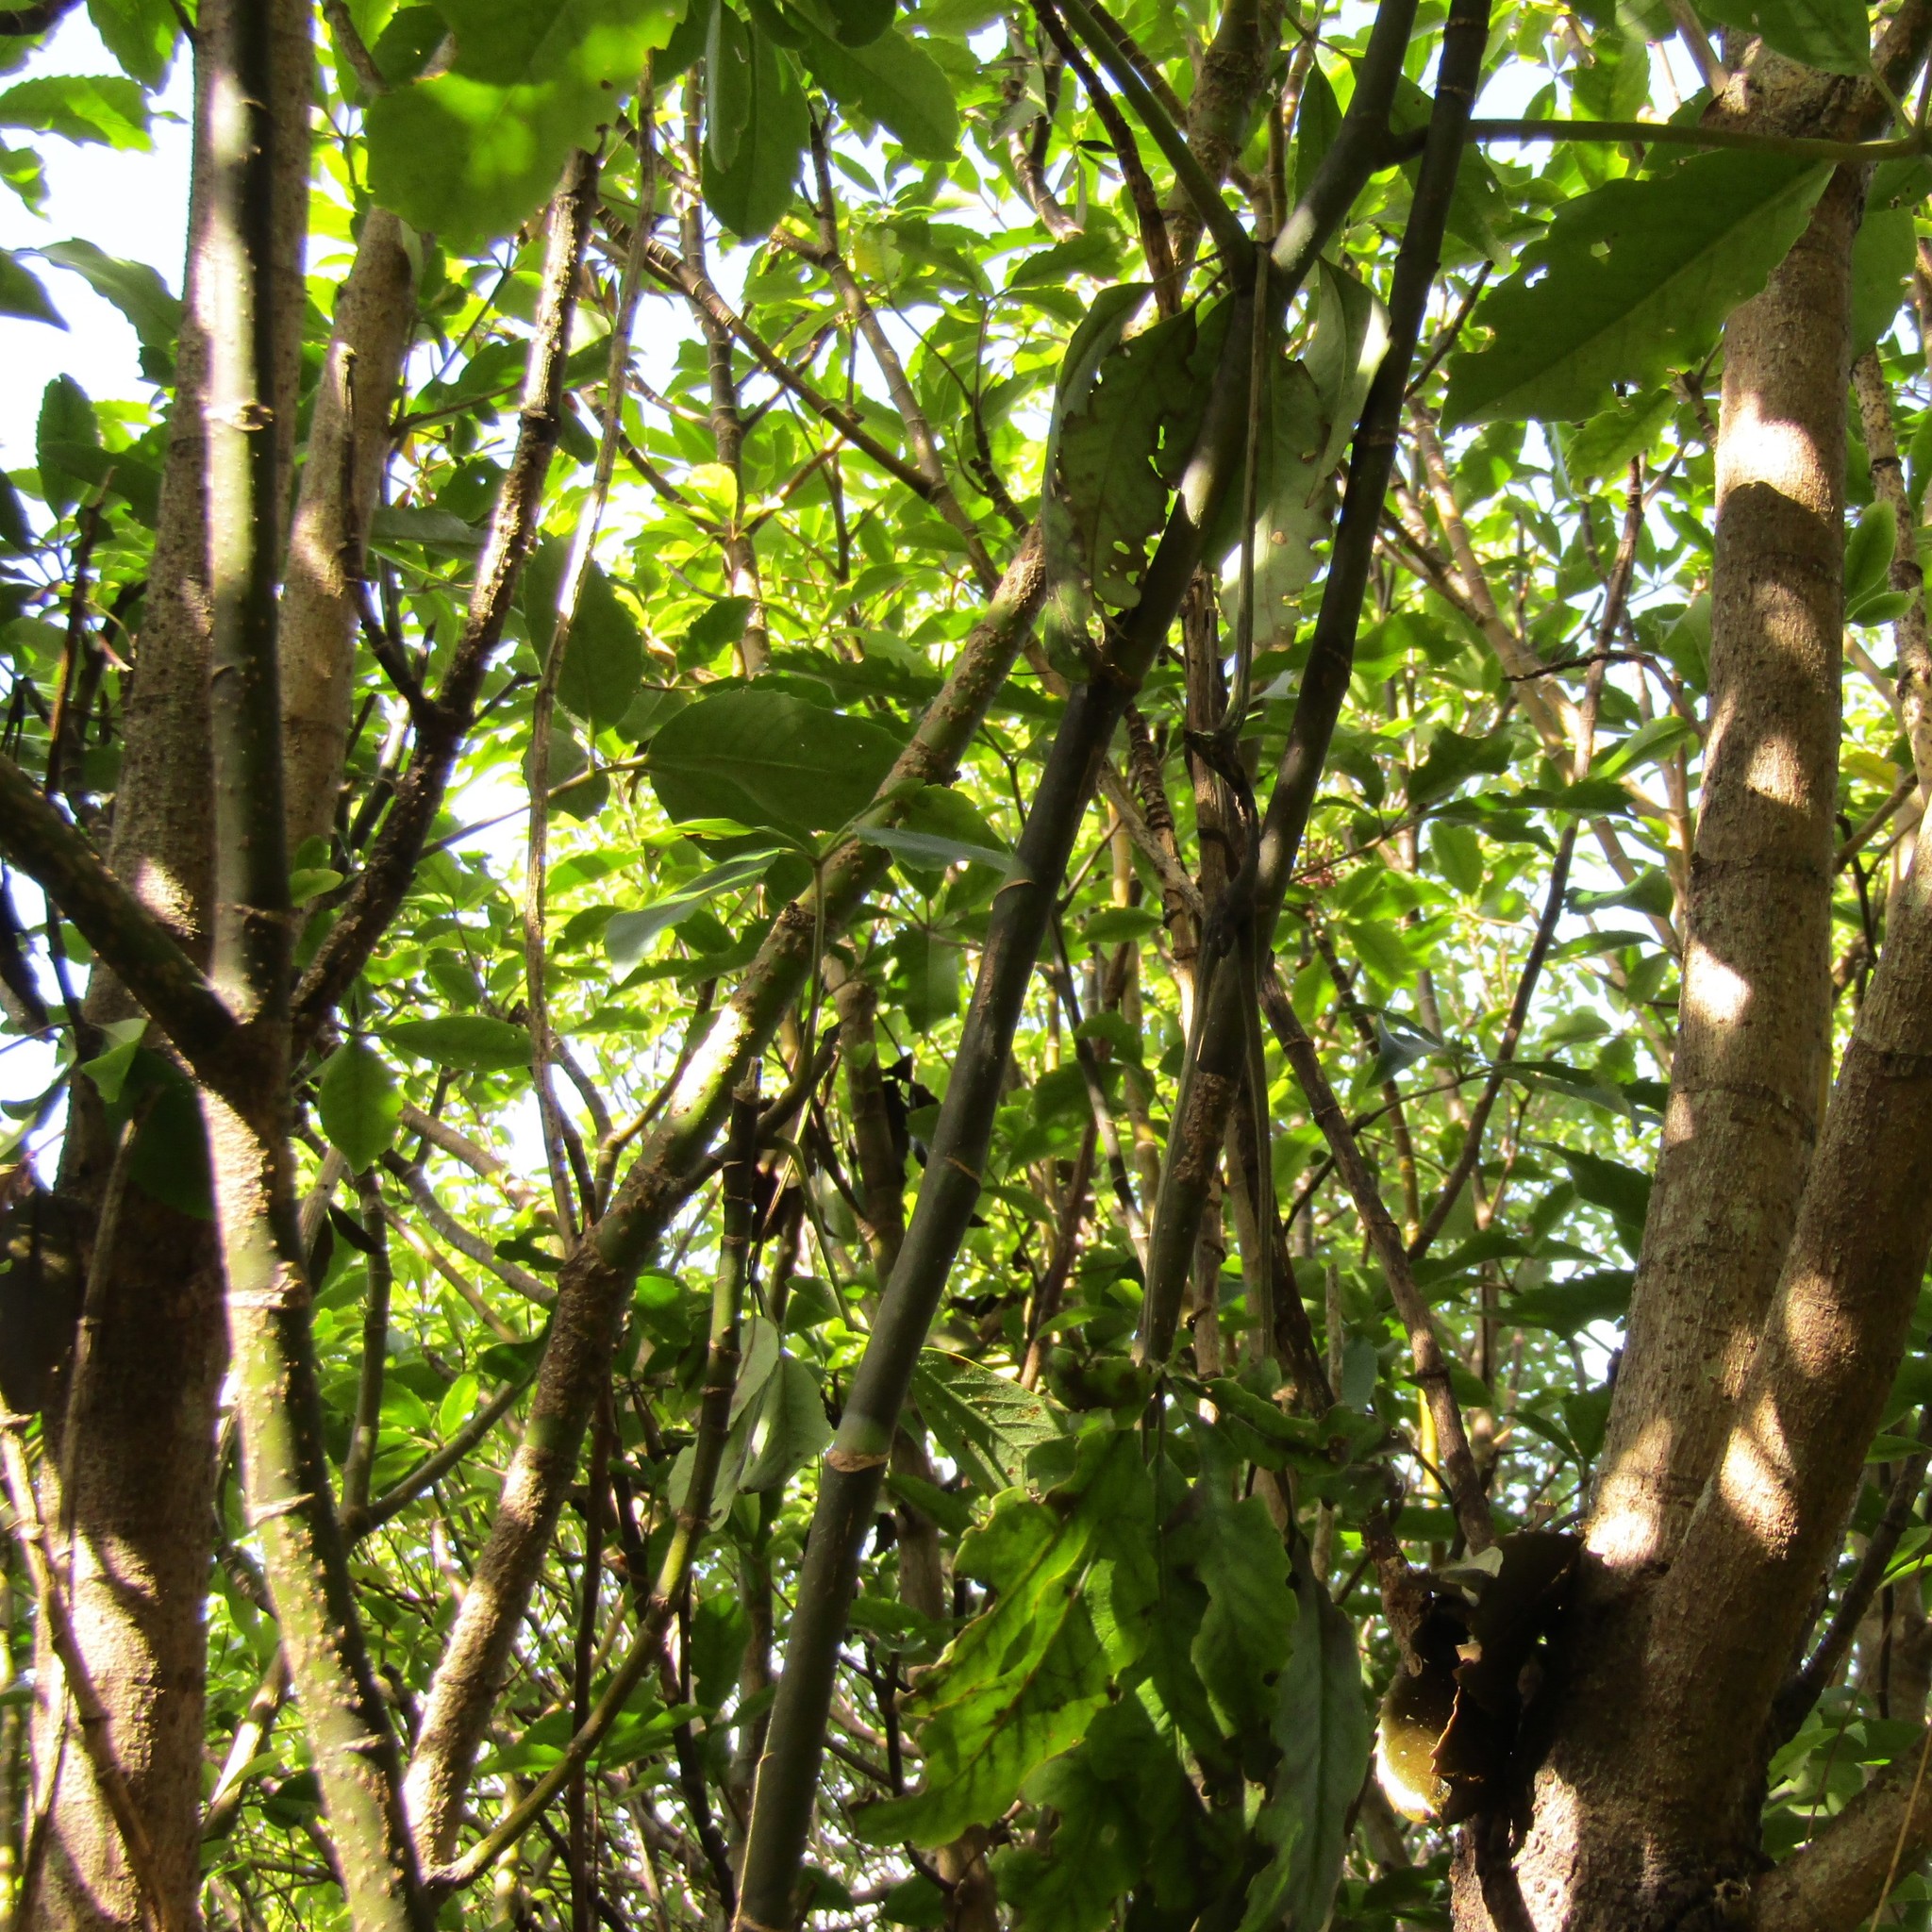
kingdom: Animalia
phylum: Chordata
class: Mammalia
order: Diprotodontia
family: Phalangeridae
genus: Trichosurus
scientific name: Trichosurus vulpecula
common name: Common brushtail
